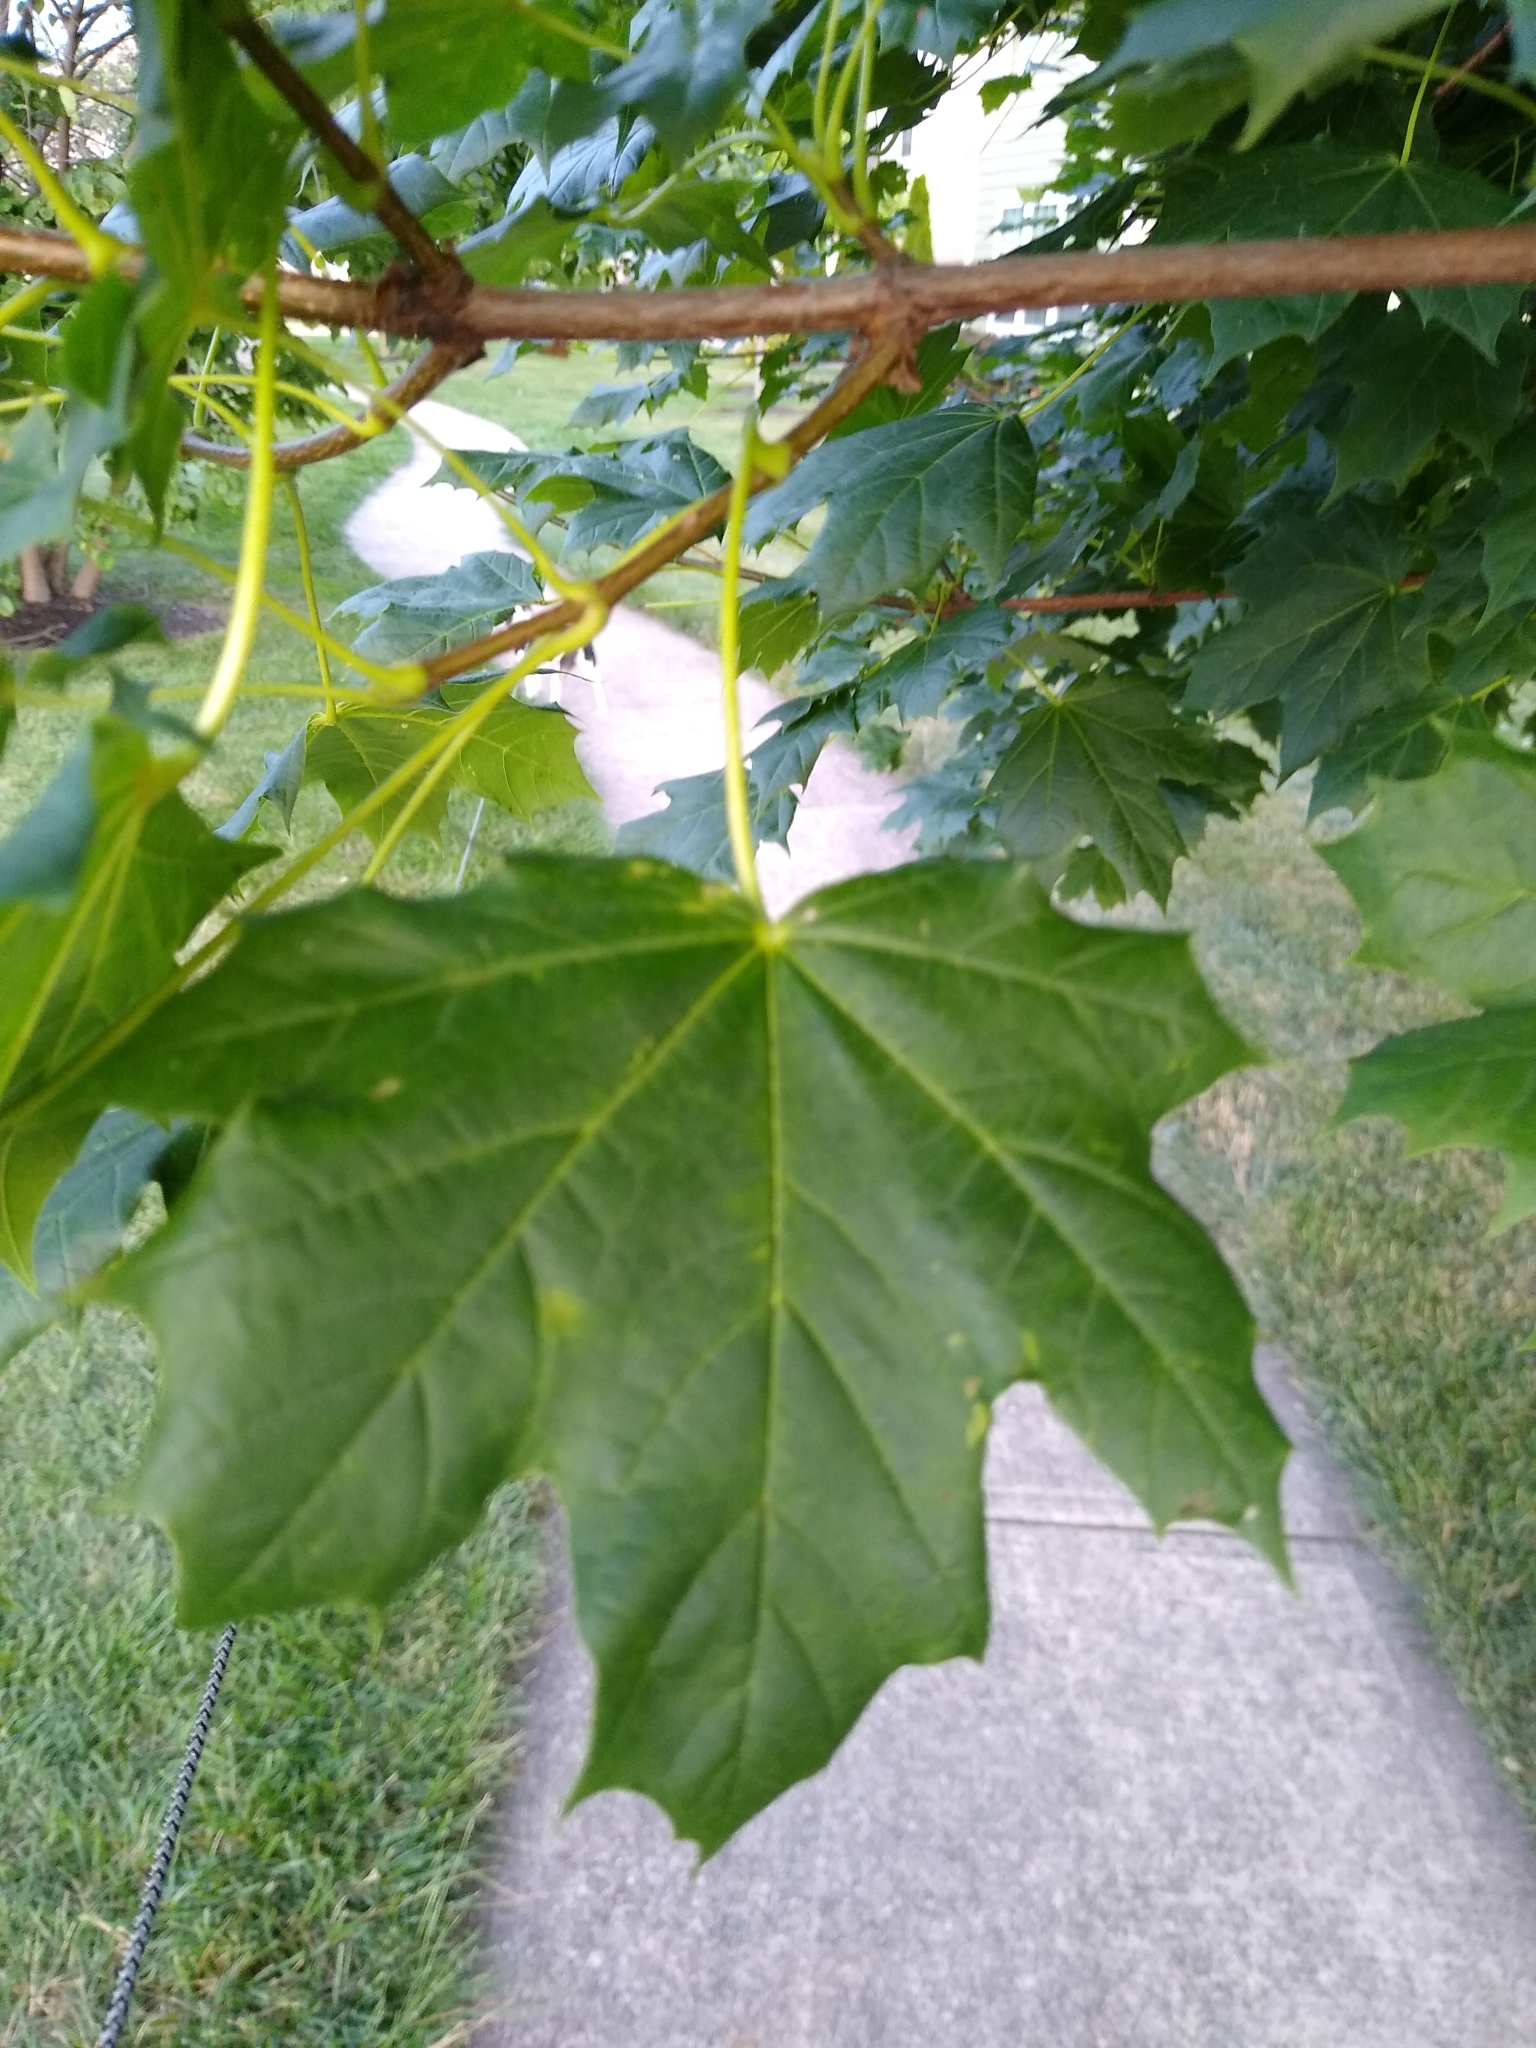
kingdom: Plantae
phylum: Tracheophyta
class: Magnoliopsida
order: Sapindales
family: Sapindaceae
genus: Acer
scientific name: Acer platanoides
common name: Norway maple
